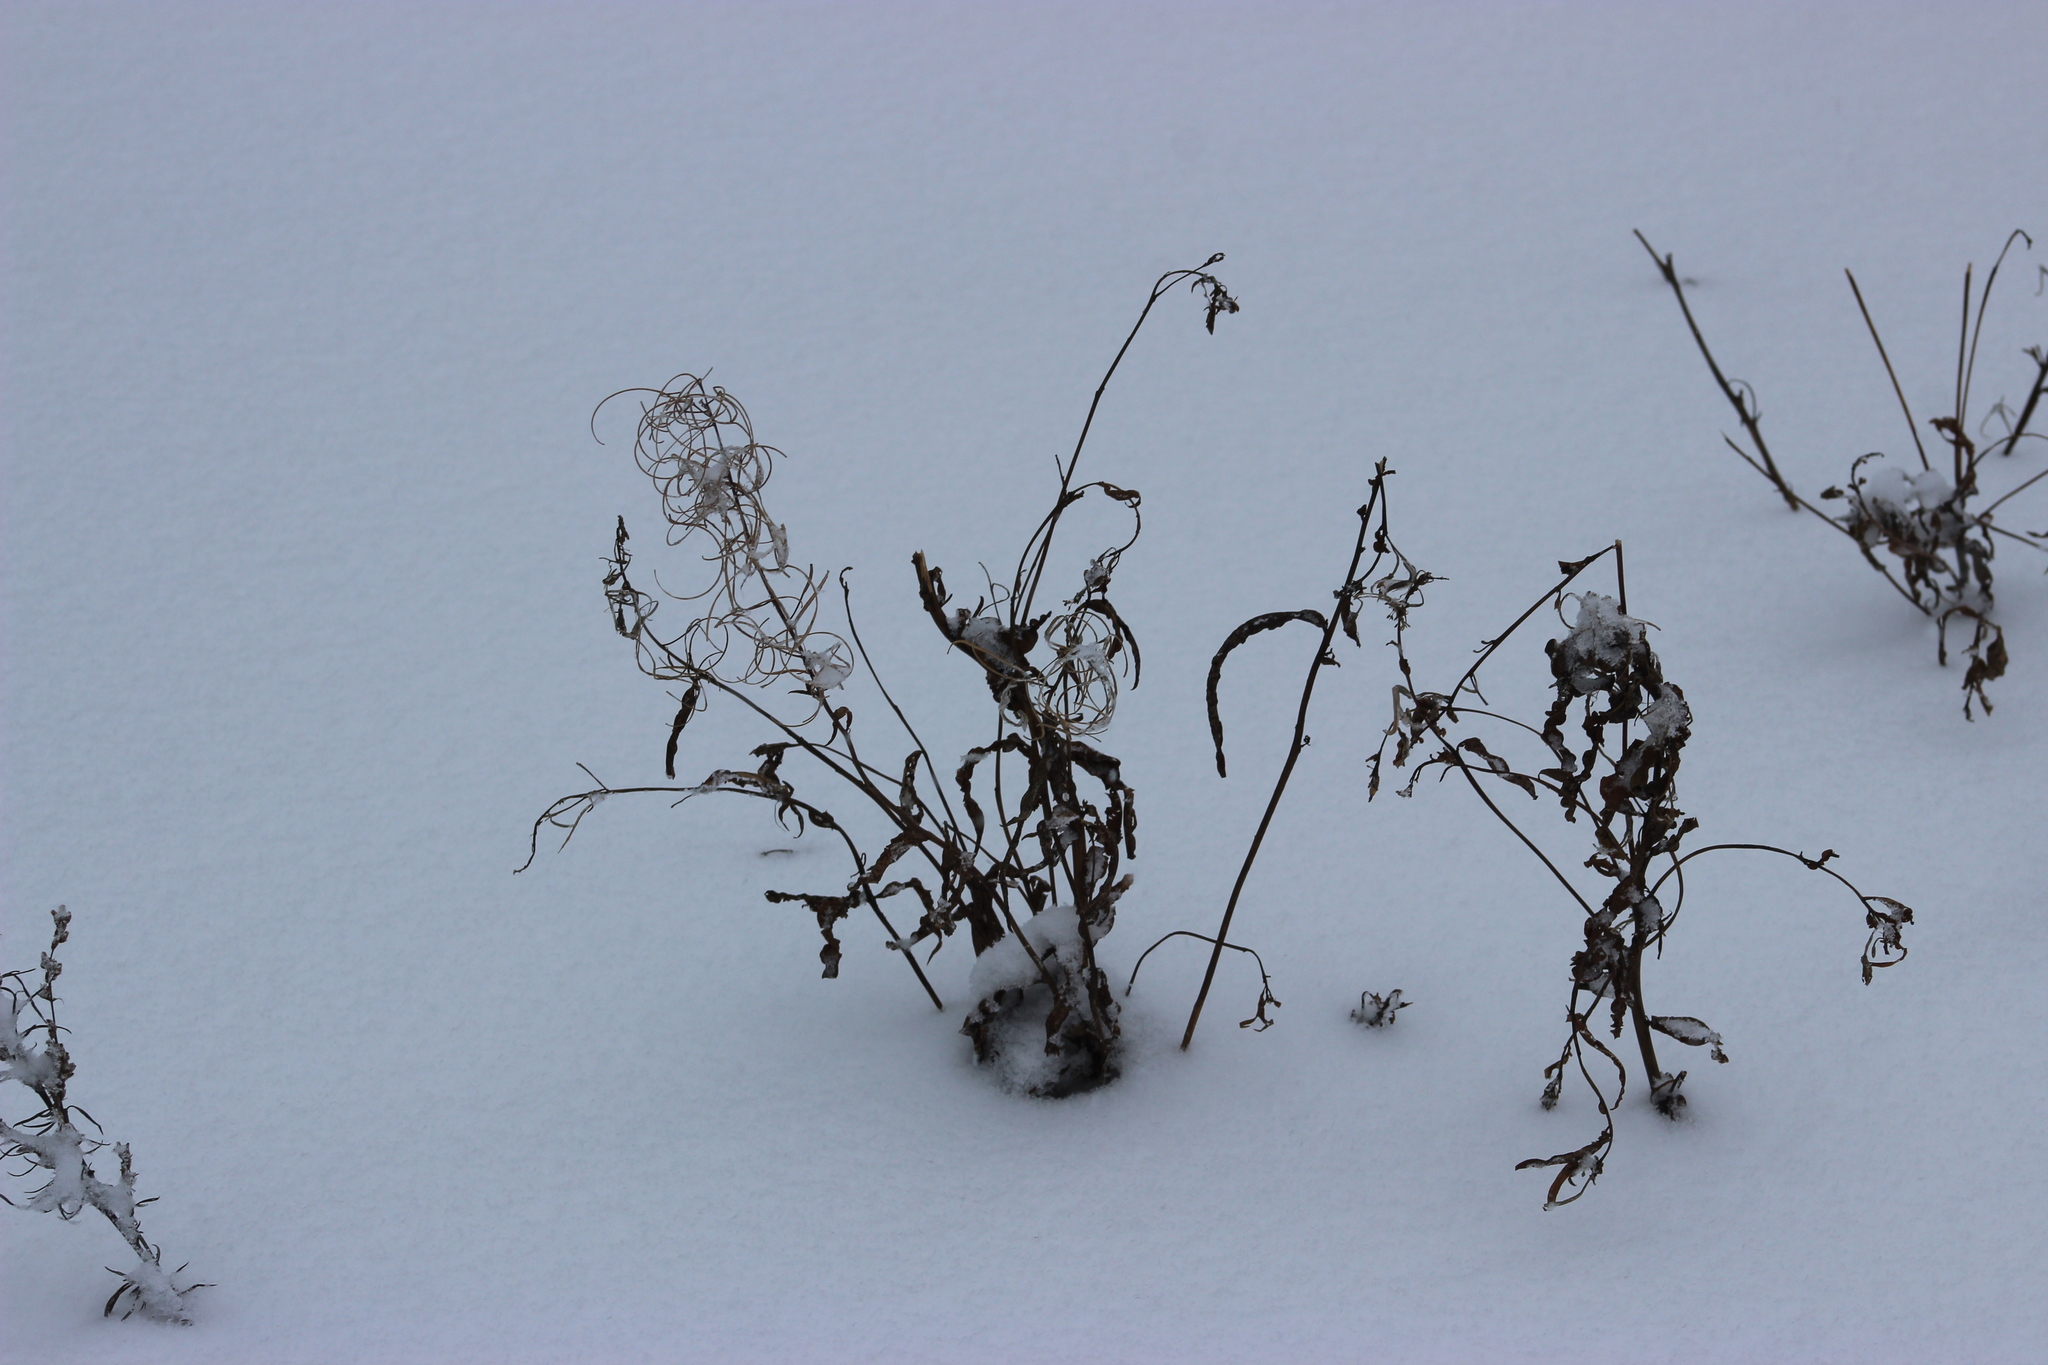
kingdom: Plantae
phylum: Tracheophyta
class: Magnoliopsida
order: Myrtales
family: Onagraceae
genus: Chamaenerion
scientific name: Chamaenerion angustifolium
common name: Fireweed
